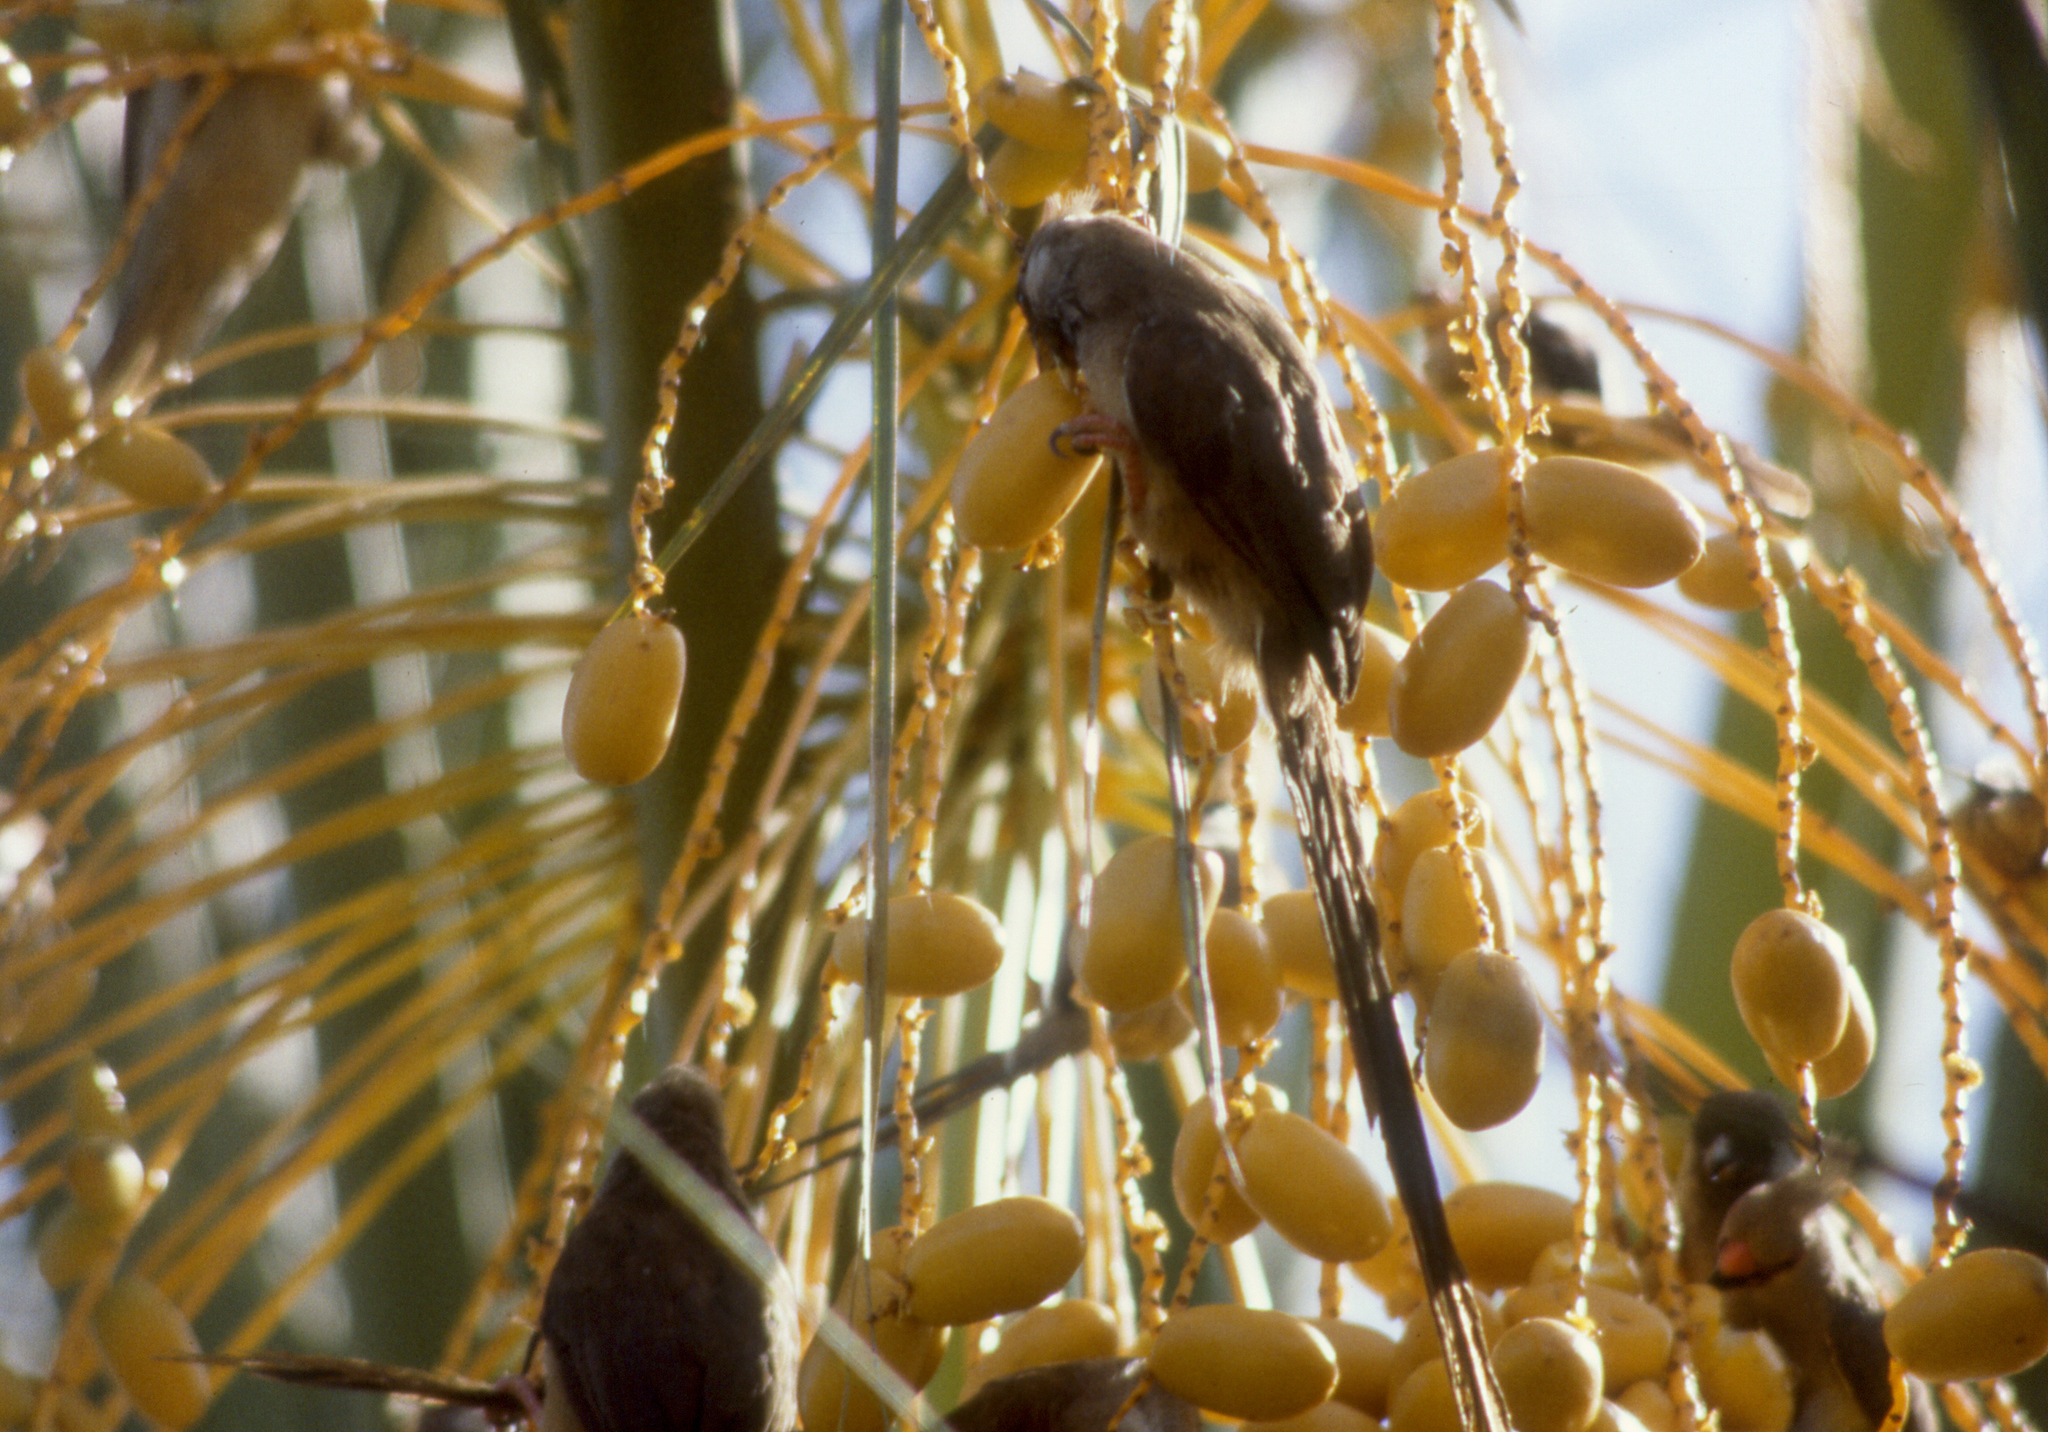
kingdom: Animalia
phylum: Chordata
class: Aves
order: Coliiformes
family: Coliidae
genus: Colius
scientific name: Colius striatus
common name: Speckled mousebird
